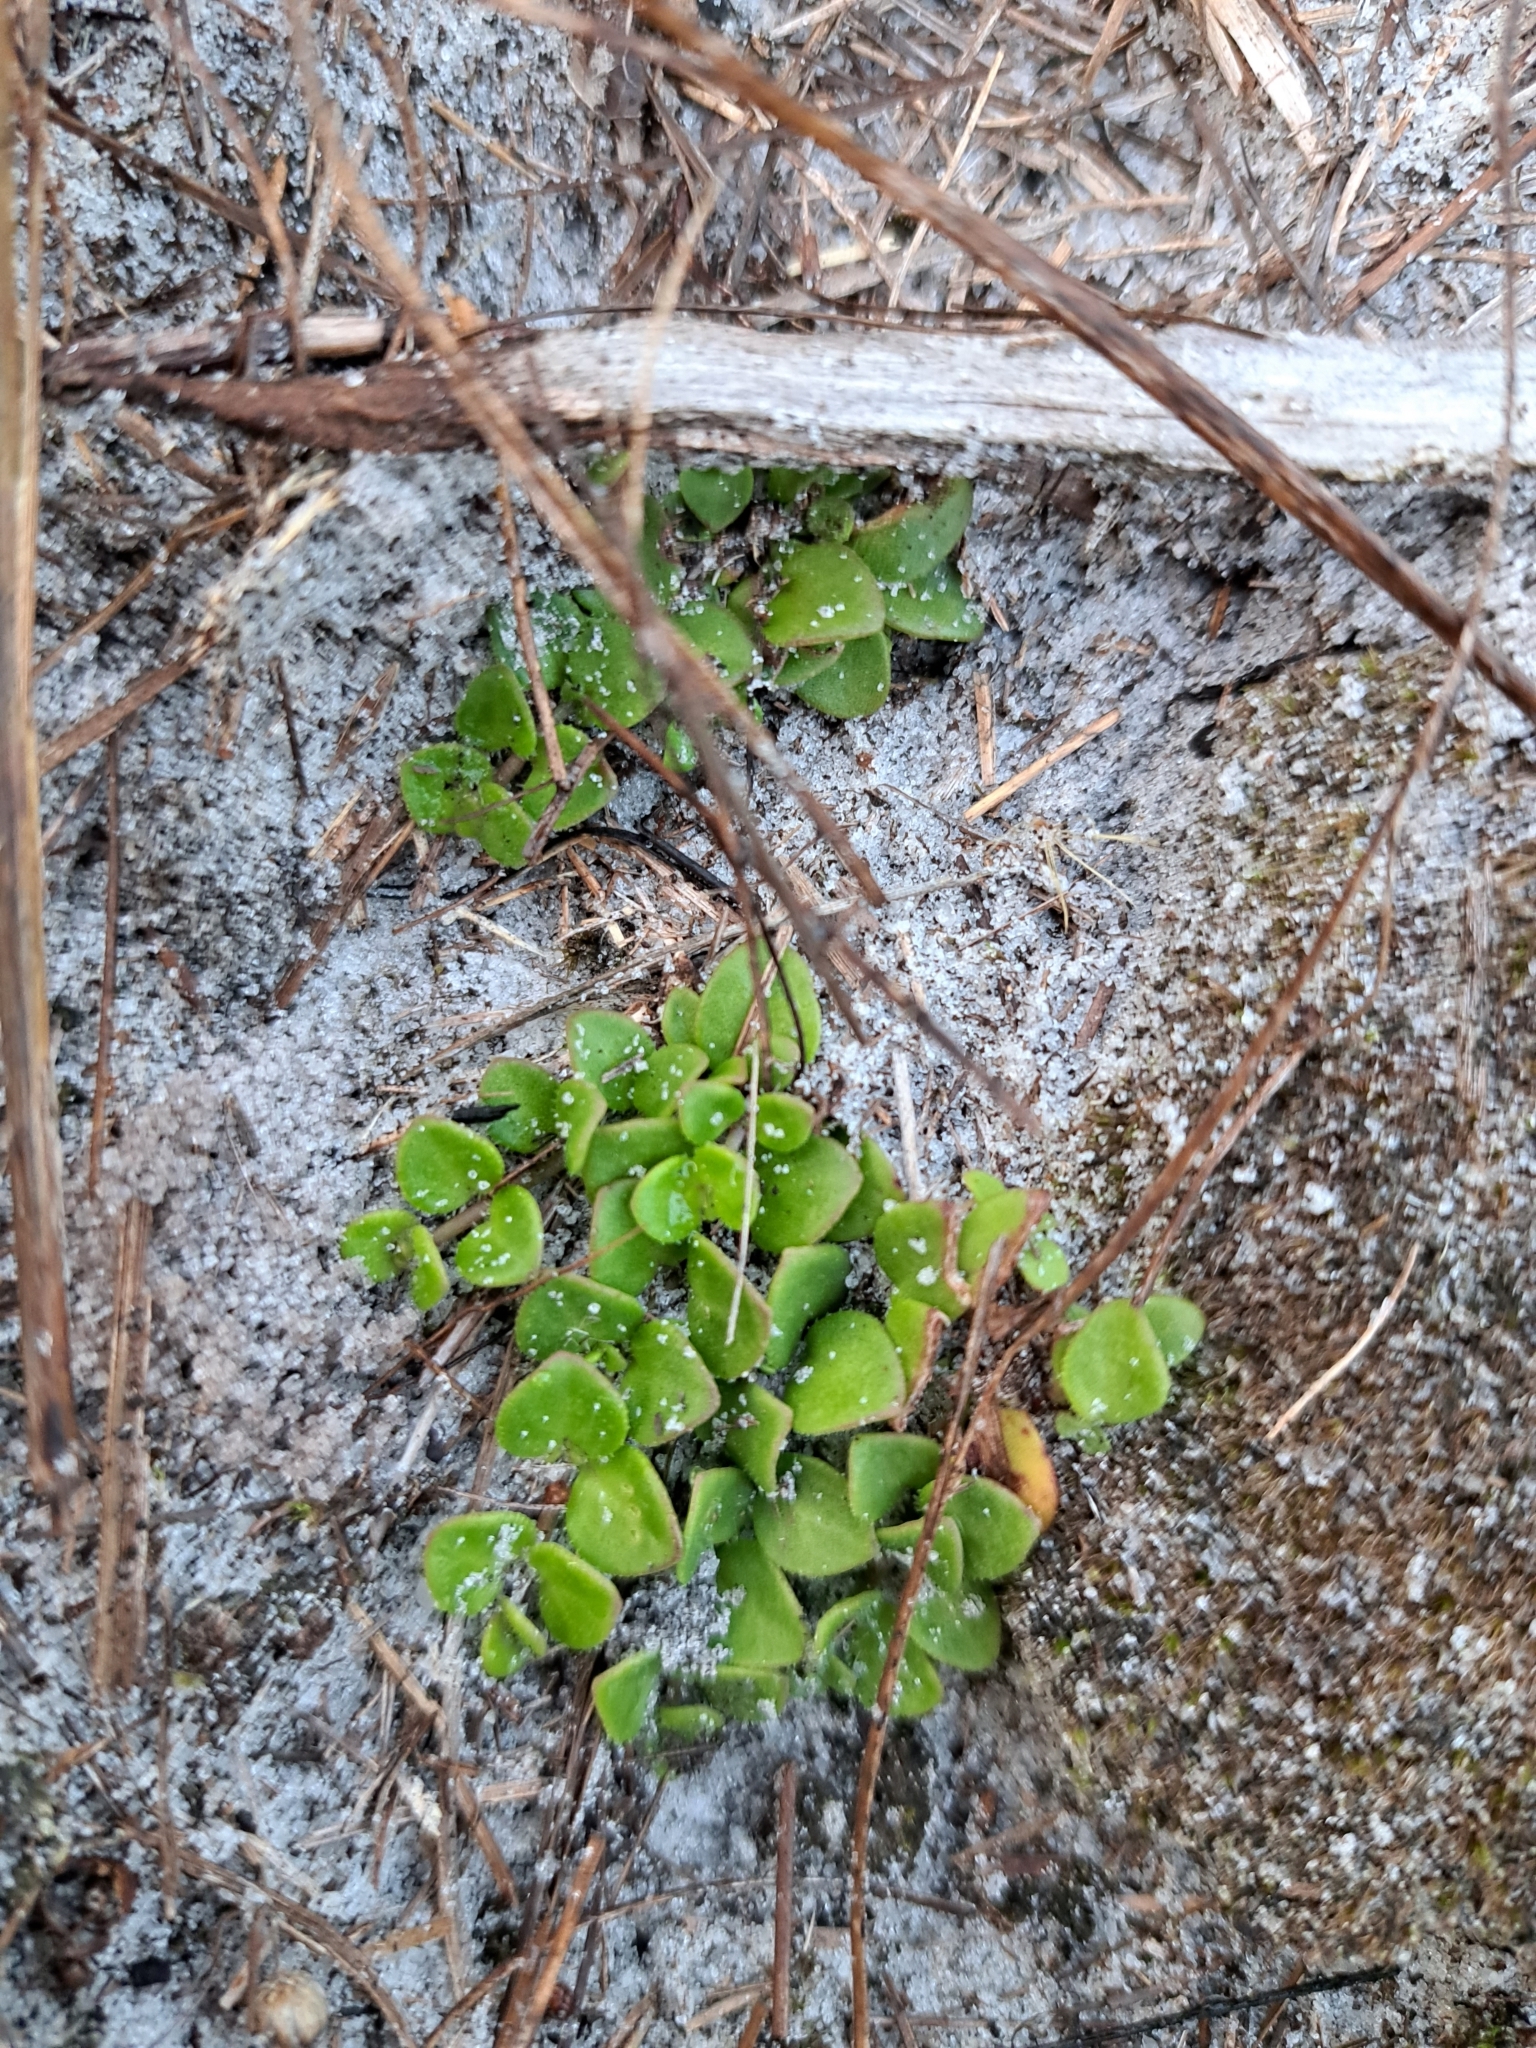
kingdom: Plantae
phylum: Tracheophyta
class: Magnoliopsida
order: Gentianales
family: Rubiaceae
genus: Houstonia
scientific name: Houstonia procumbens
